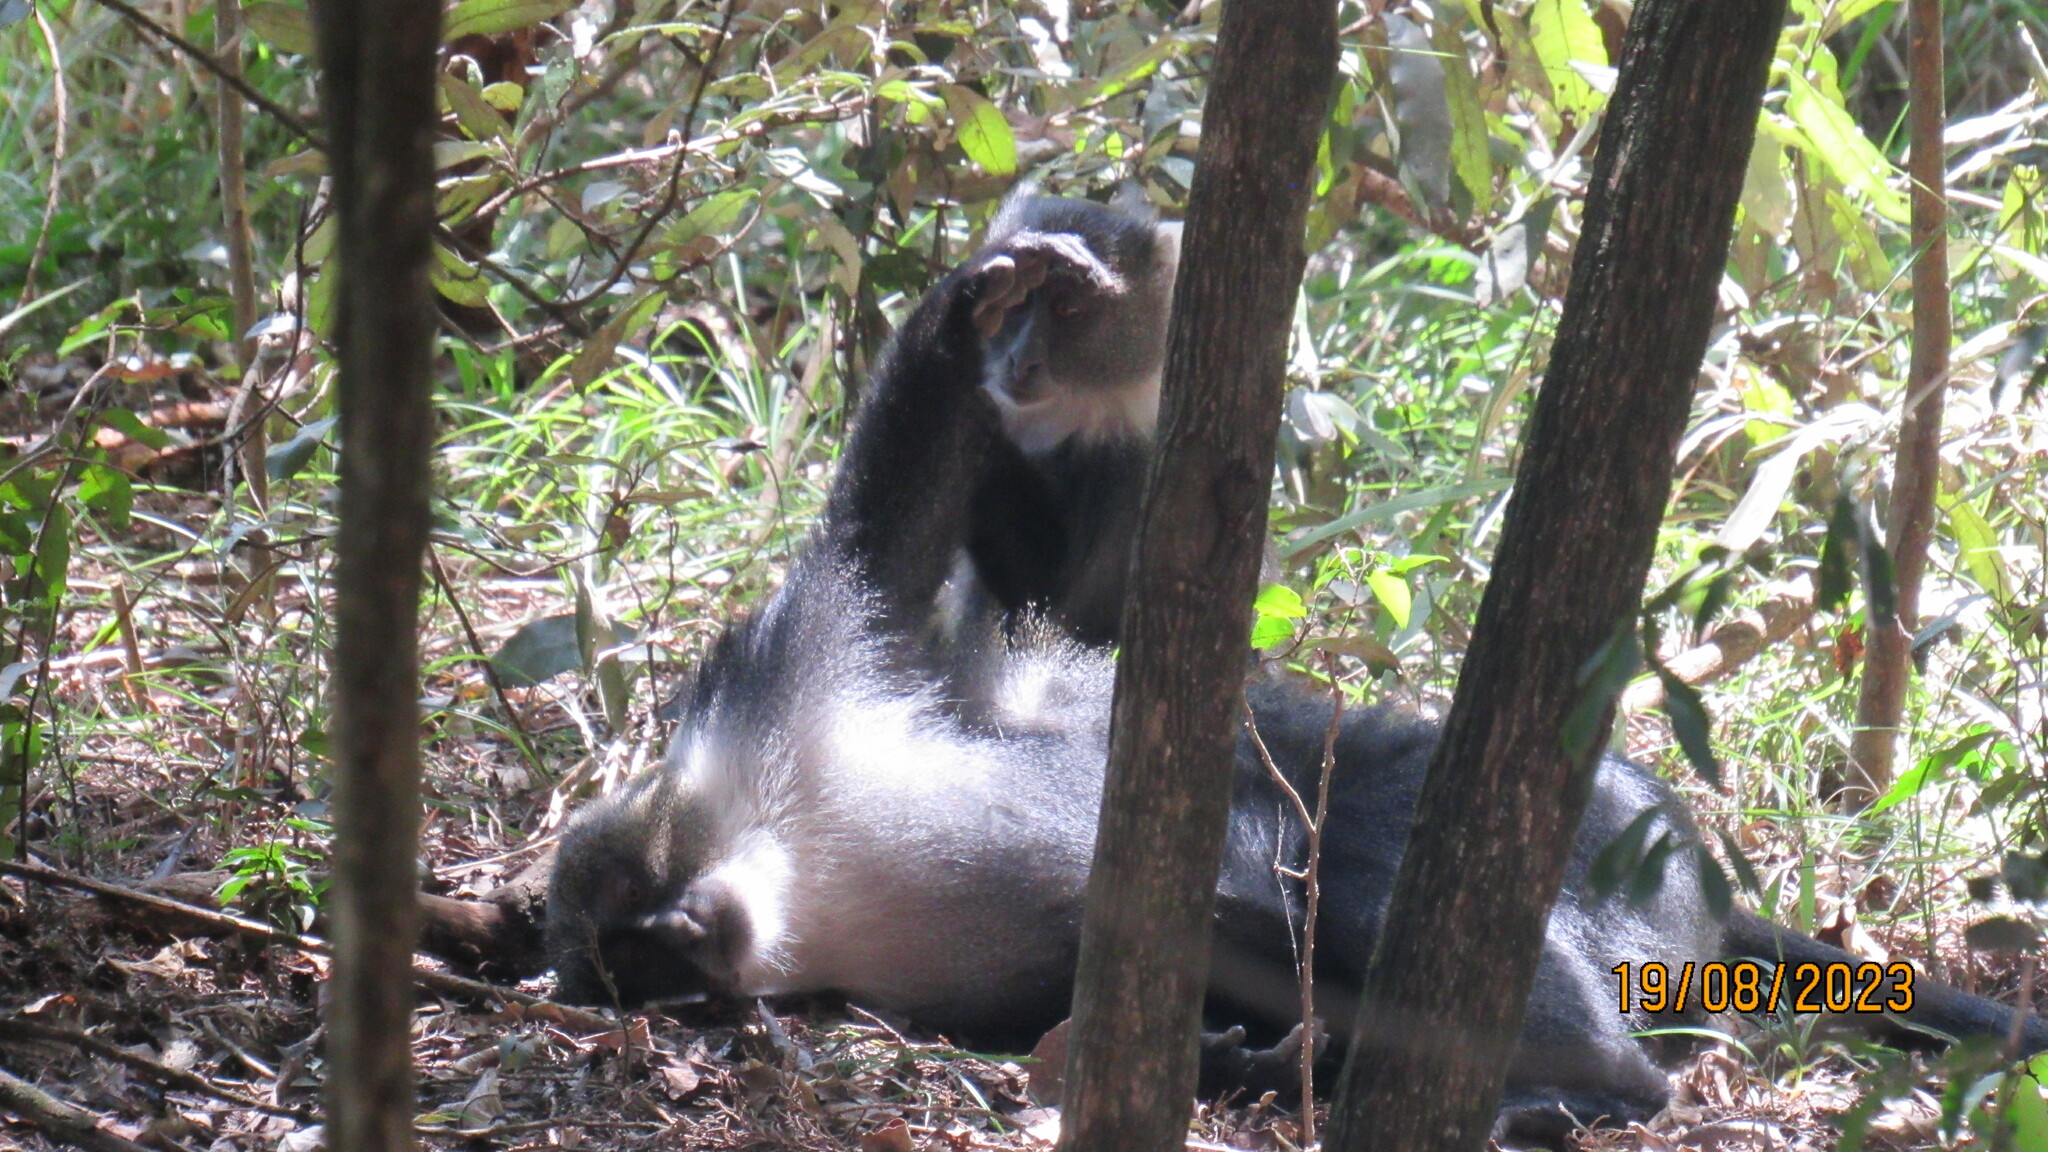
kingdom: Animalia
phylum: Chordata
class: Mammalia
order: Primates
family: Cercopithecidae
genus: Cercopithecus
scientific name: Cercopithecus mitis
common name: Blue monkey
